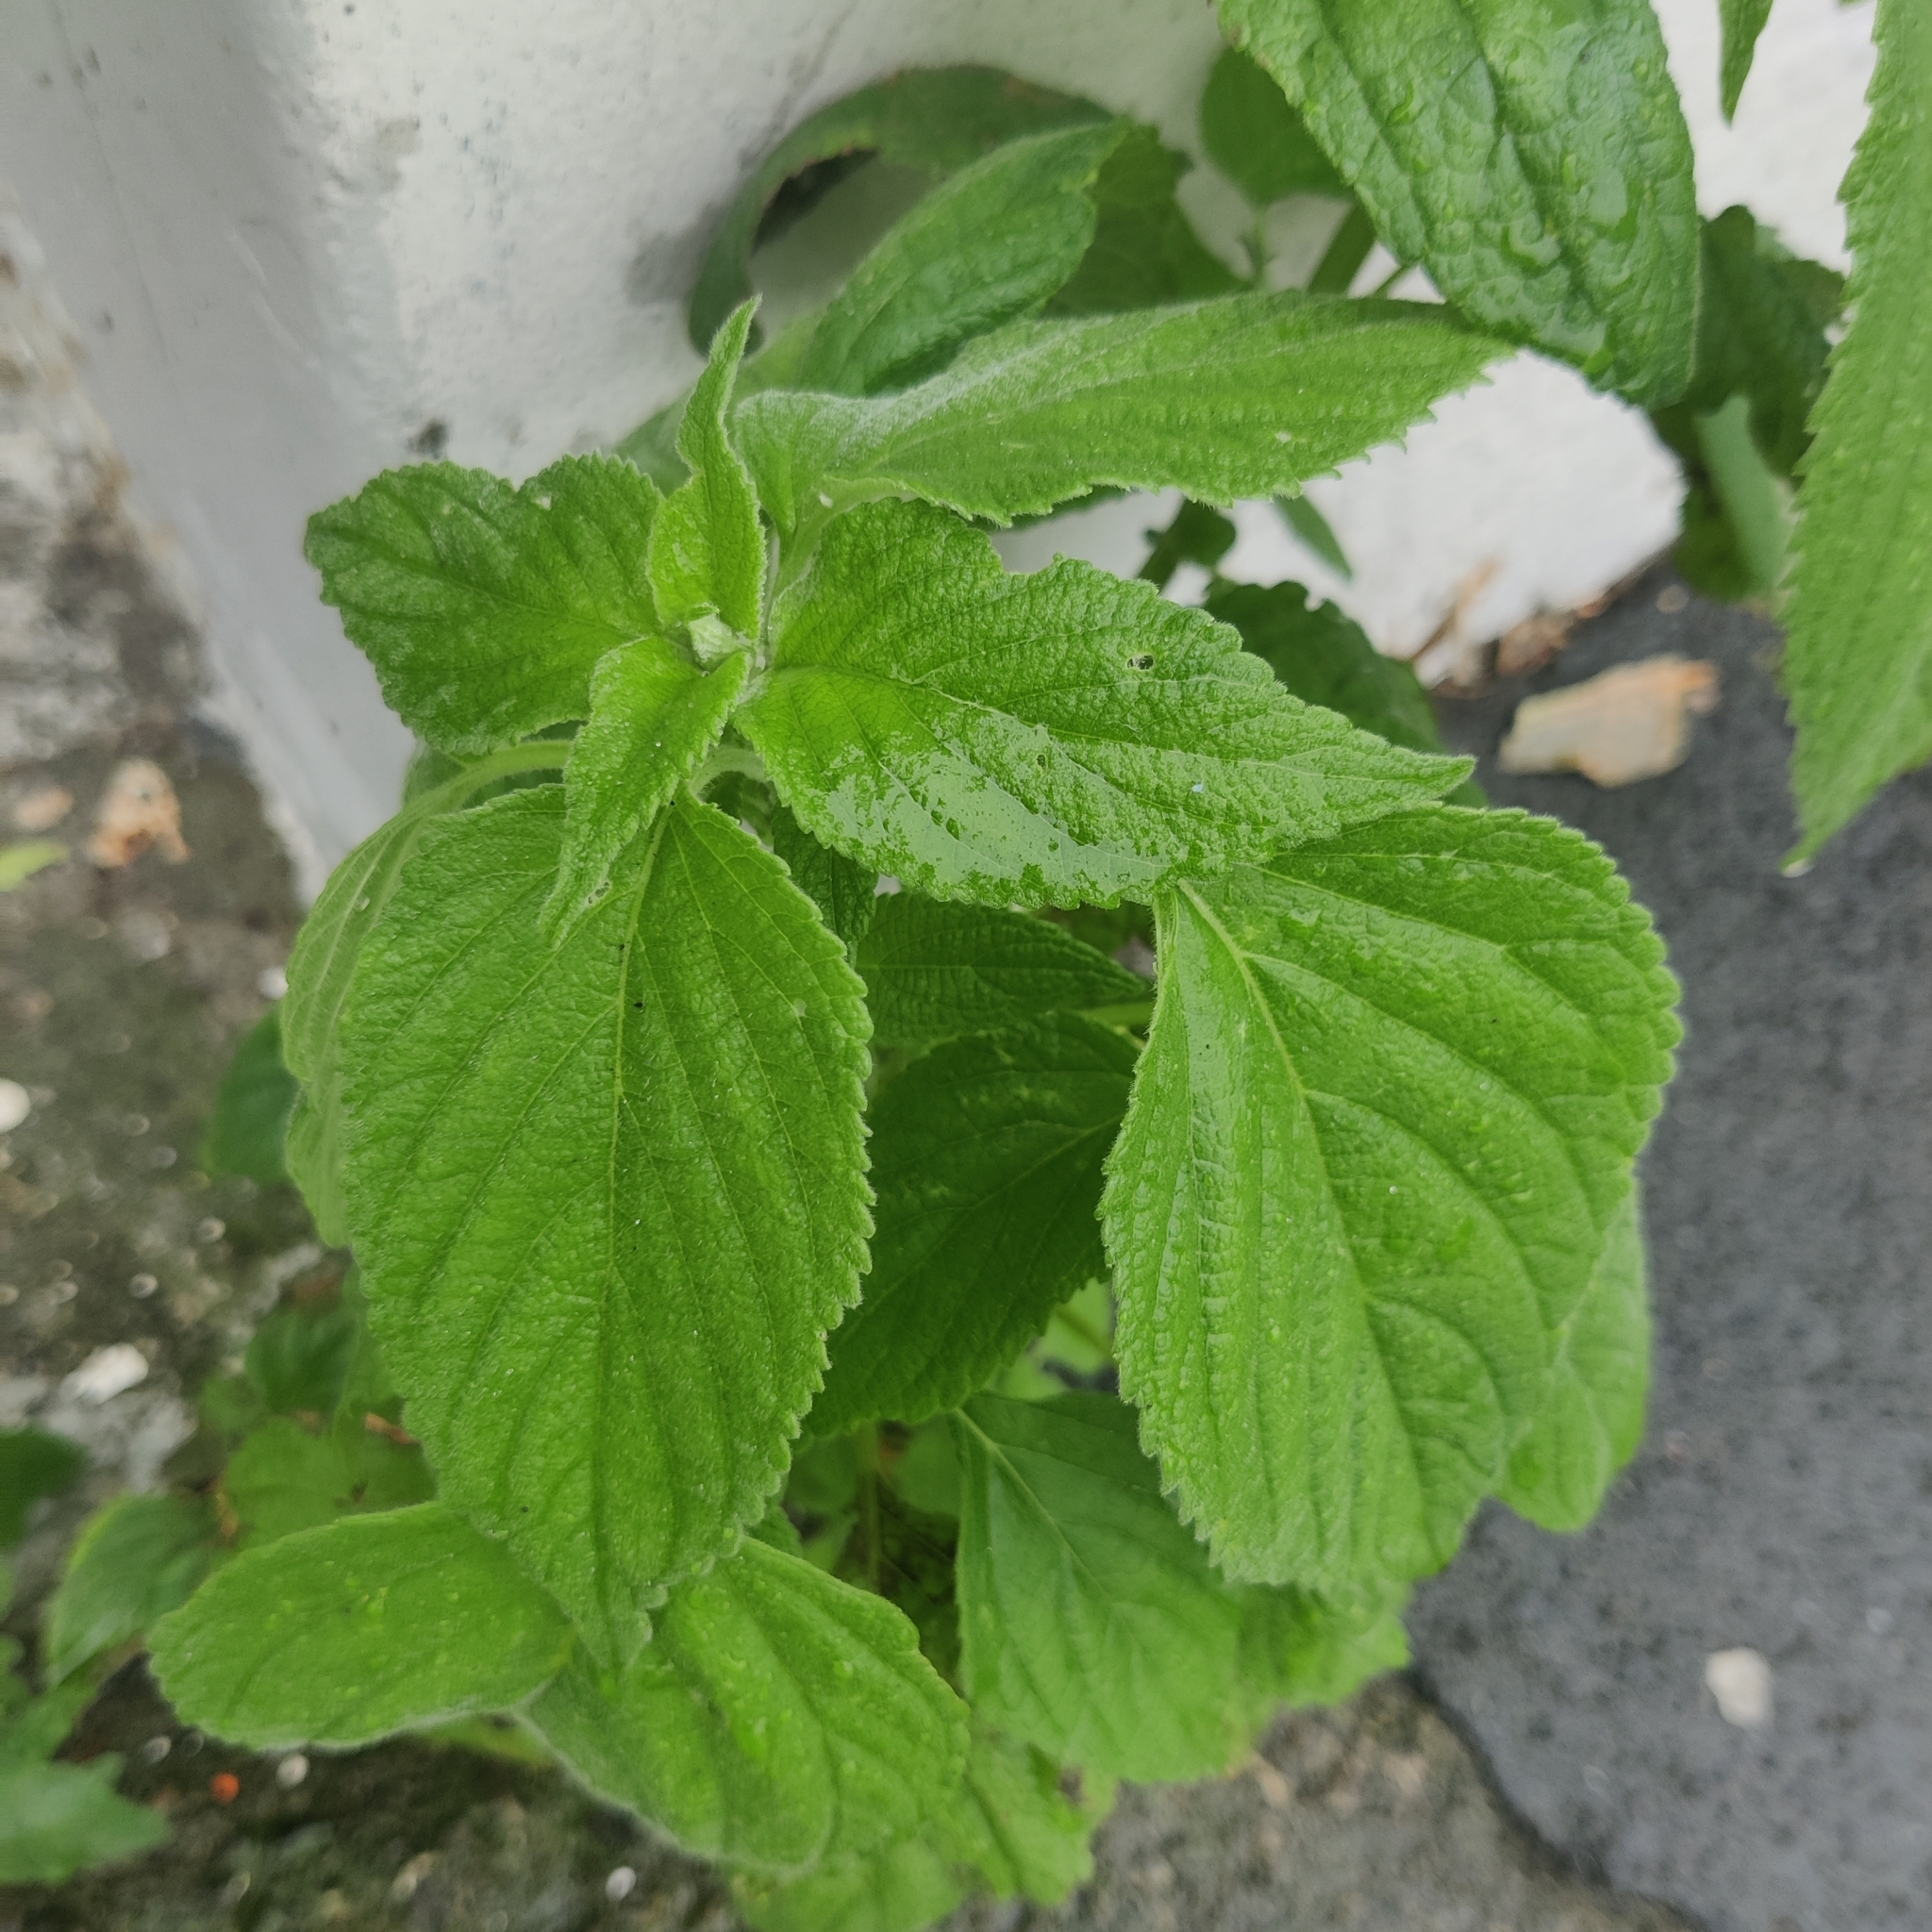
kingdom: Plantae
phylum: Tracheophyta
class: Magnoliopsida
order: Lamiales
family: Lamiaceae
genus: Salvia
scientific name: Salvia hispanica
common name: Chia
